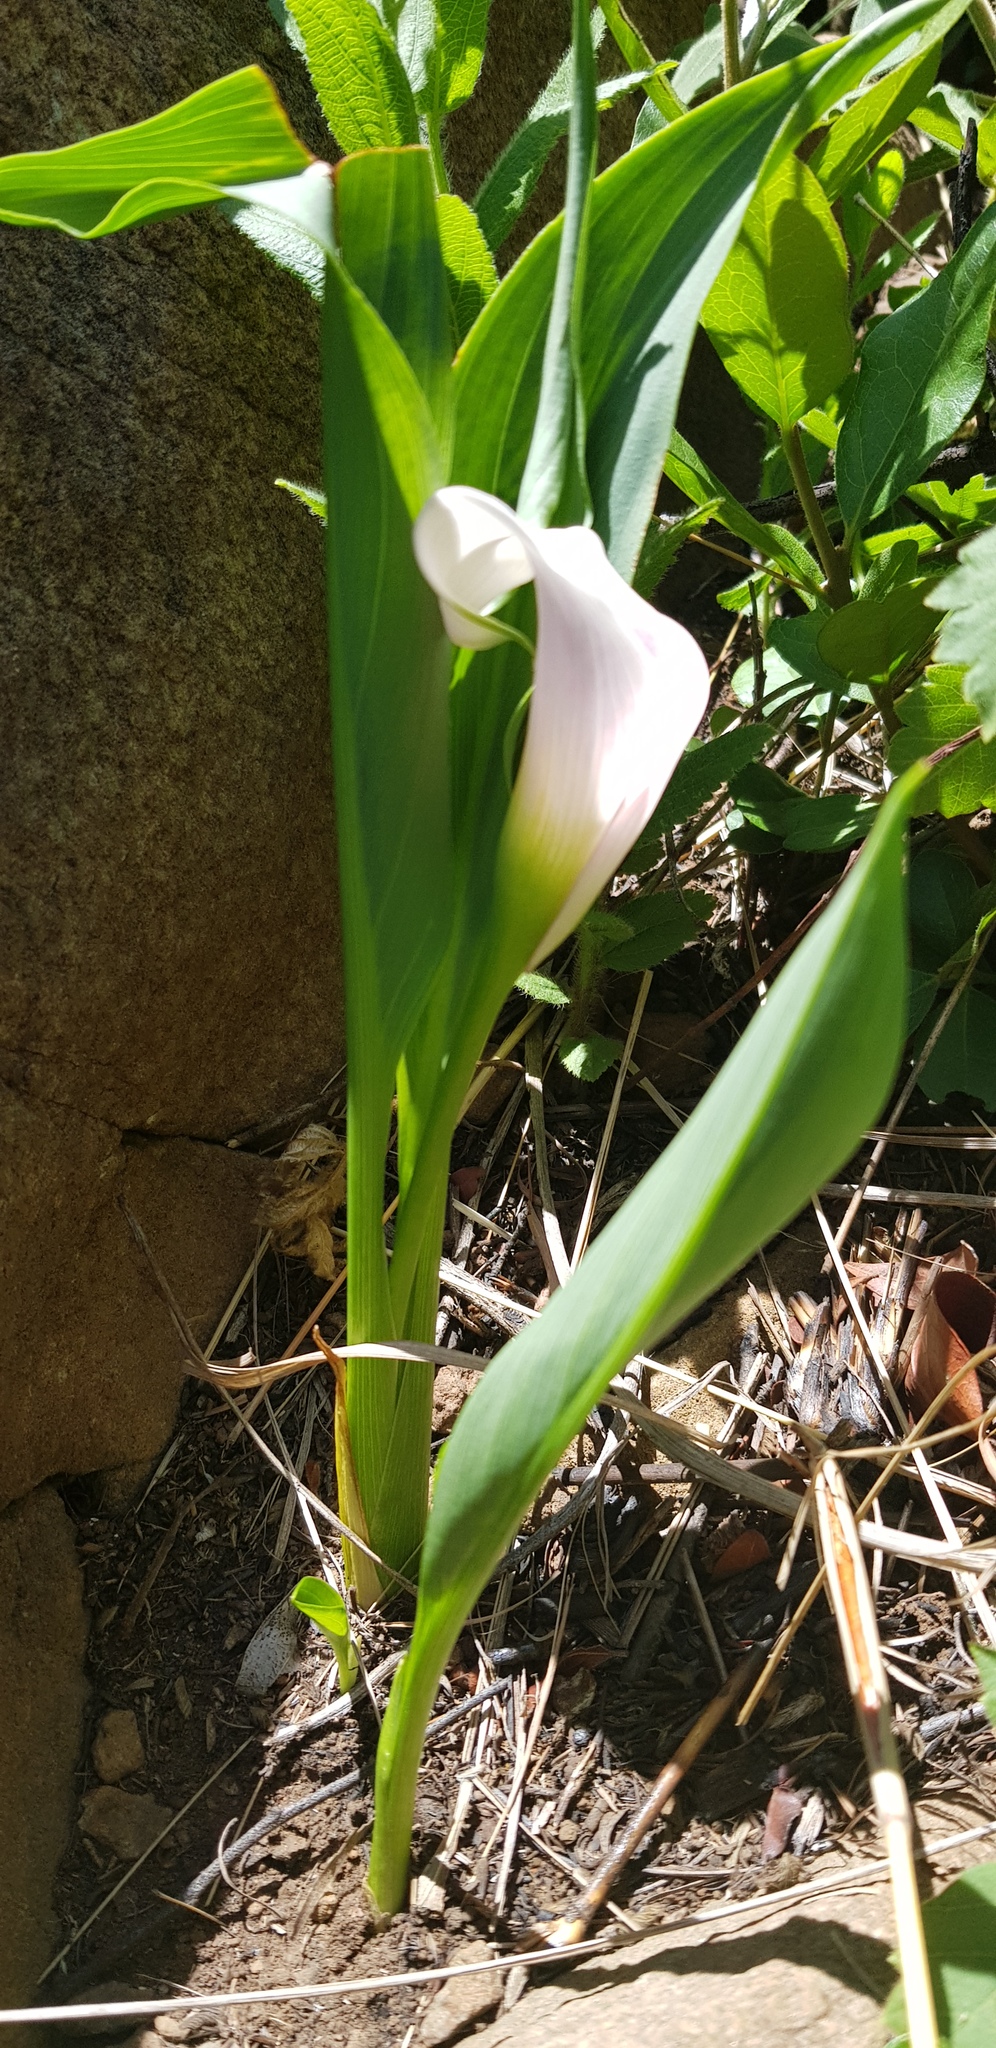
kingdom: Plantae
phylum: Tracheophyta
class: Liliopsida
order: Alismatales
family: Araceae
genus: Zantedeschia
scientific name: Zantedeschia rehmannii
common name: Red calla
